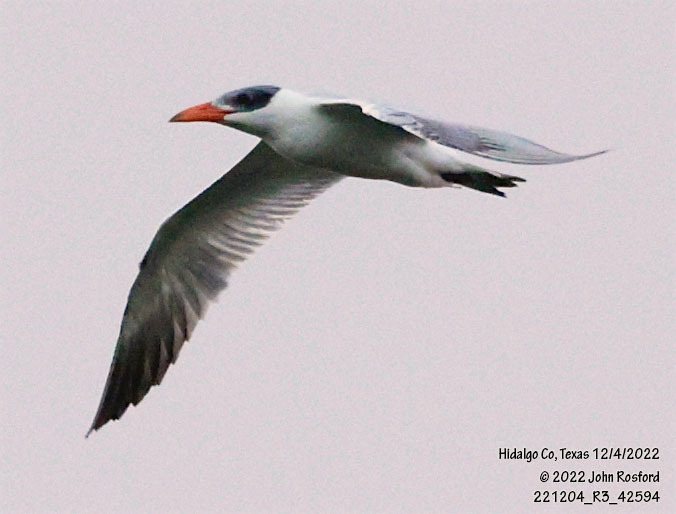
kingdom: Animalia
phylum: Chordata
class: Aves
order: Charadriiformes
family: Laridae
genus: Hydroprogne
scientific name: Hydroprogne caspia
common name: Caspian tern
